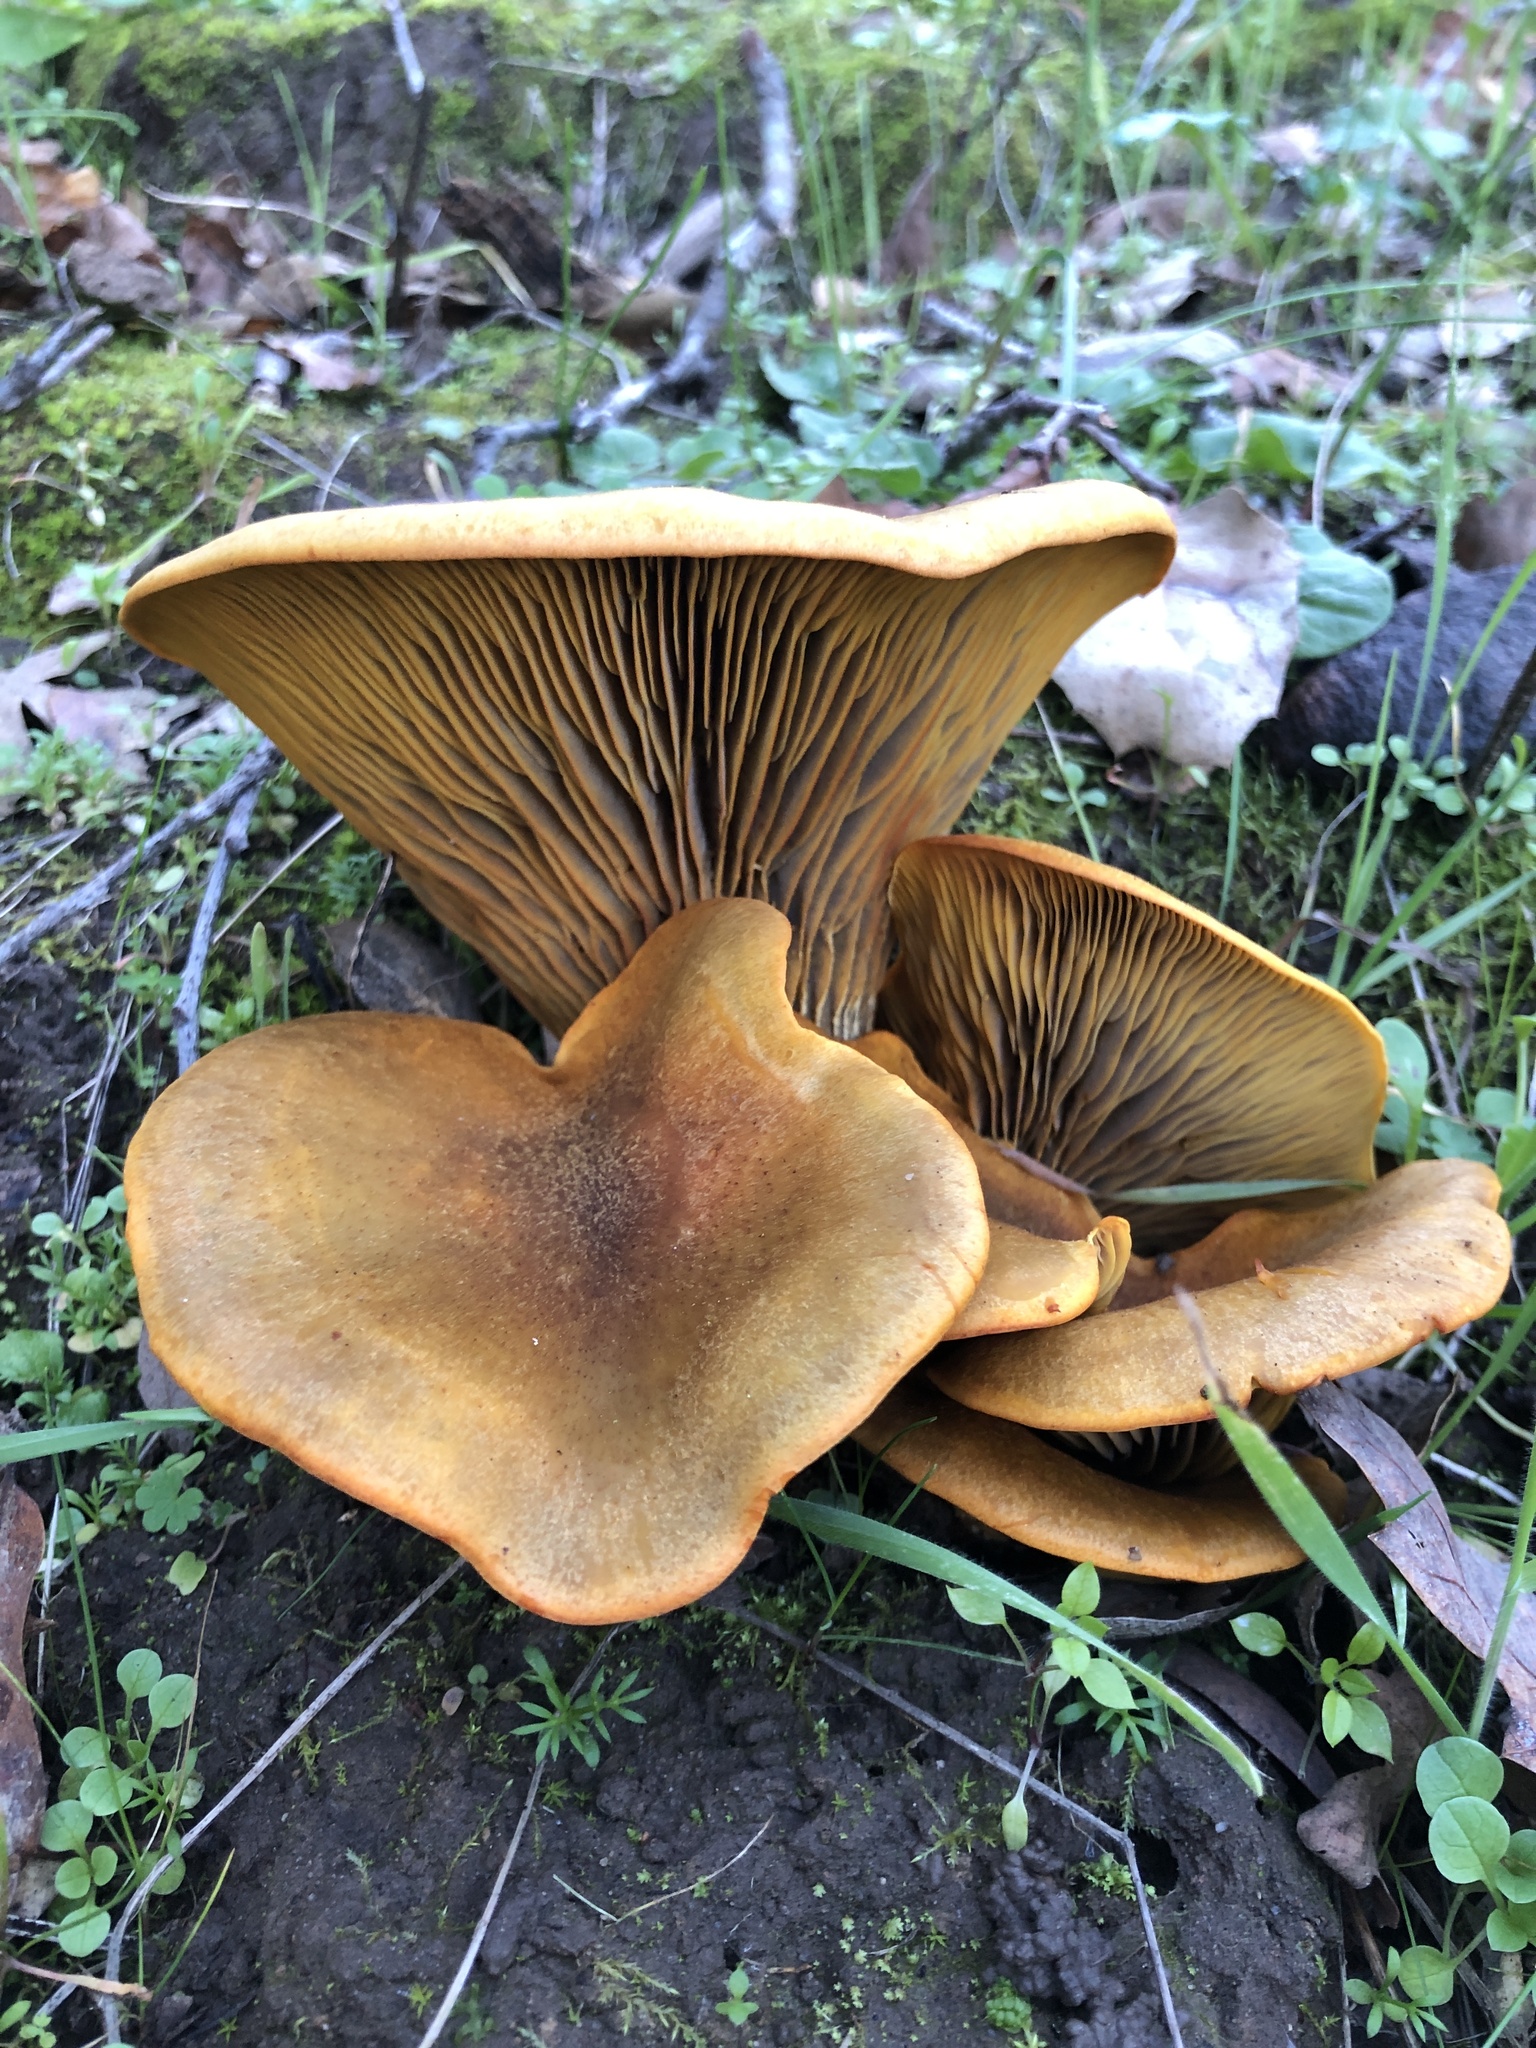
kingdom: Fungi
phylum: Basidiomycota
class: Agaricomycetes
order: Agaricales
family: Omphalotaceae
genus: Omphalotus
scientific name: Omphalotus olivascens
